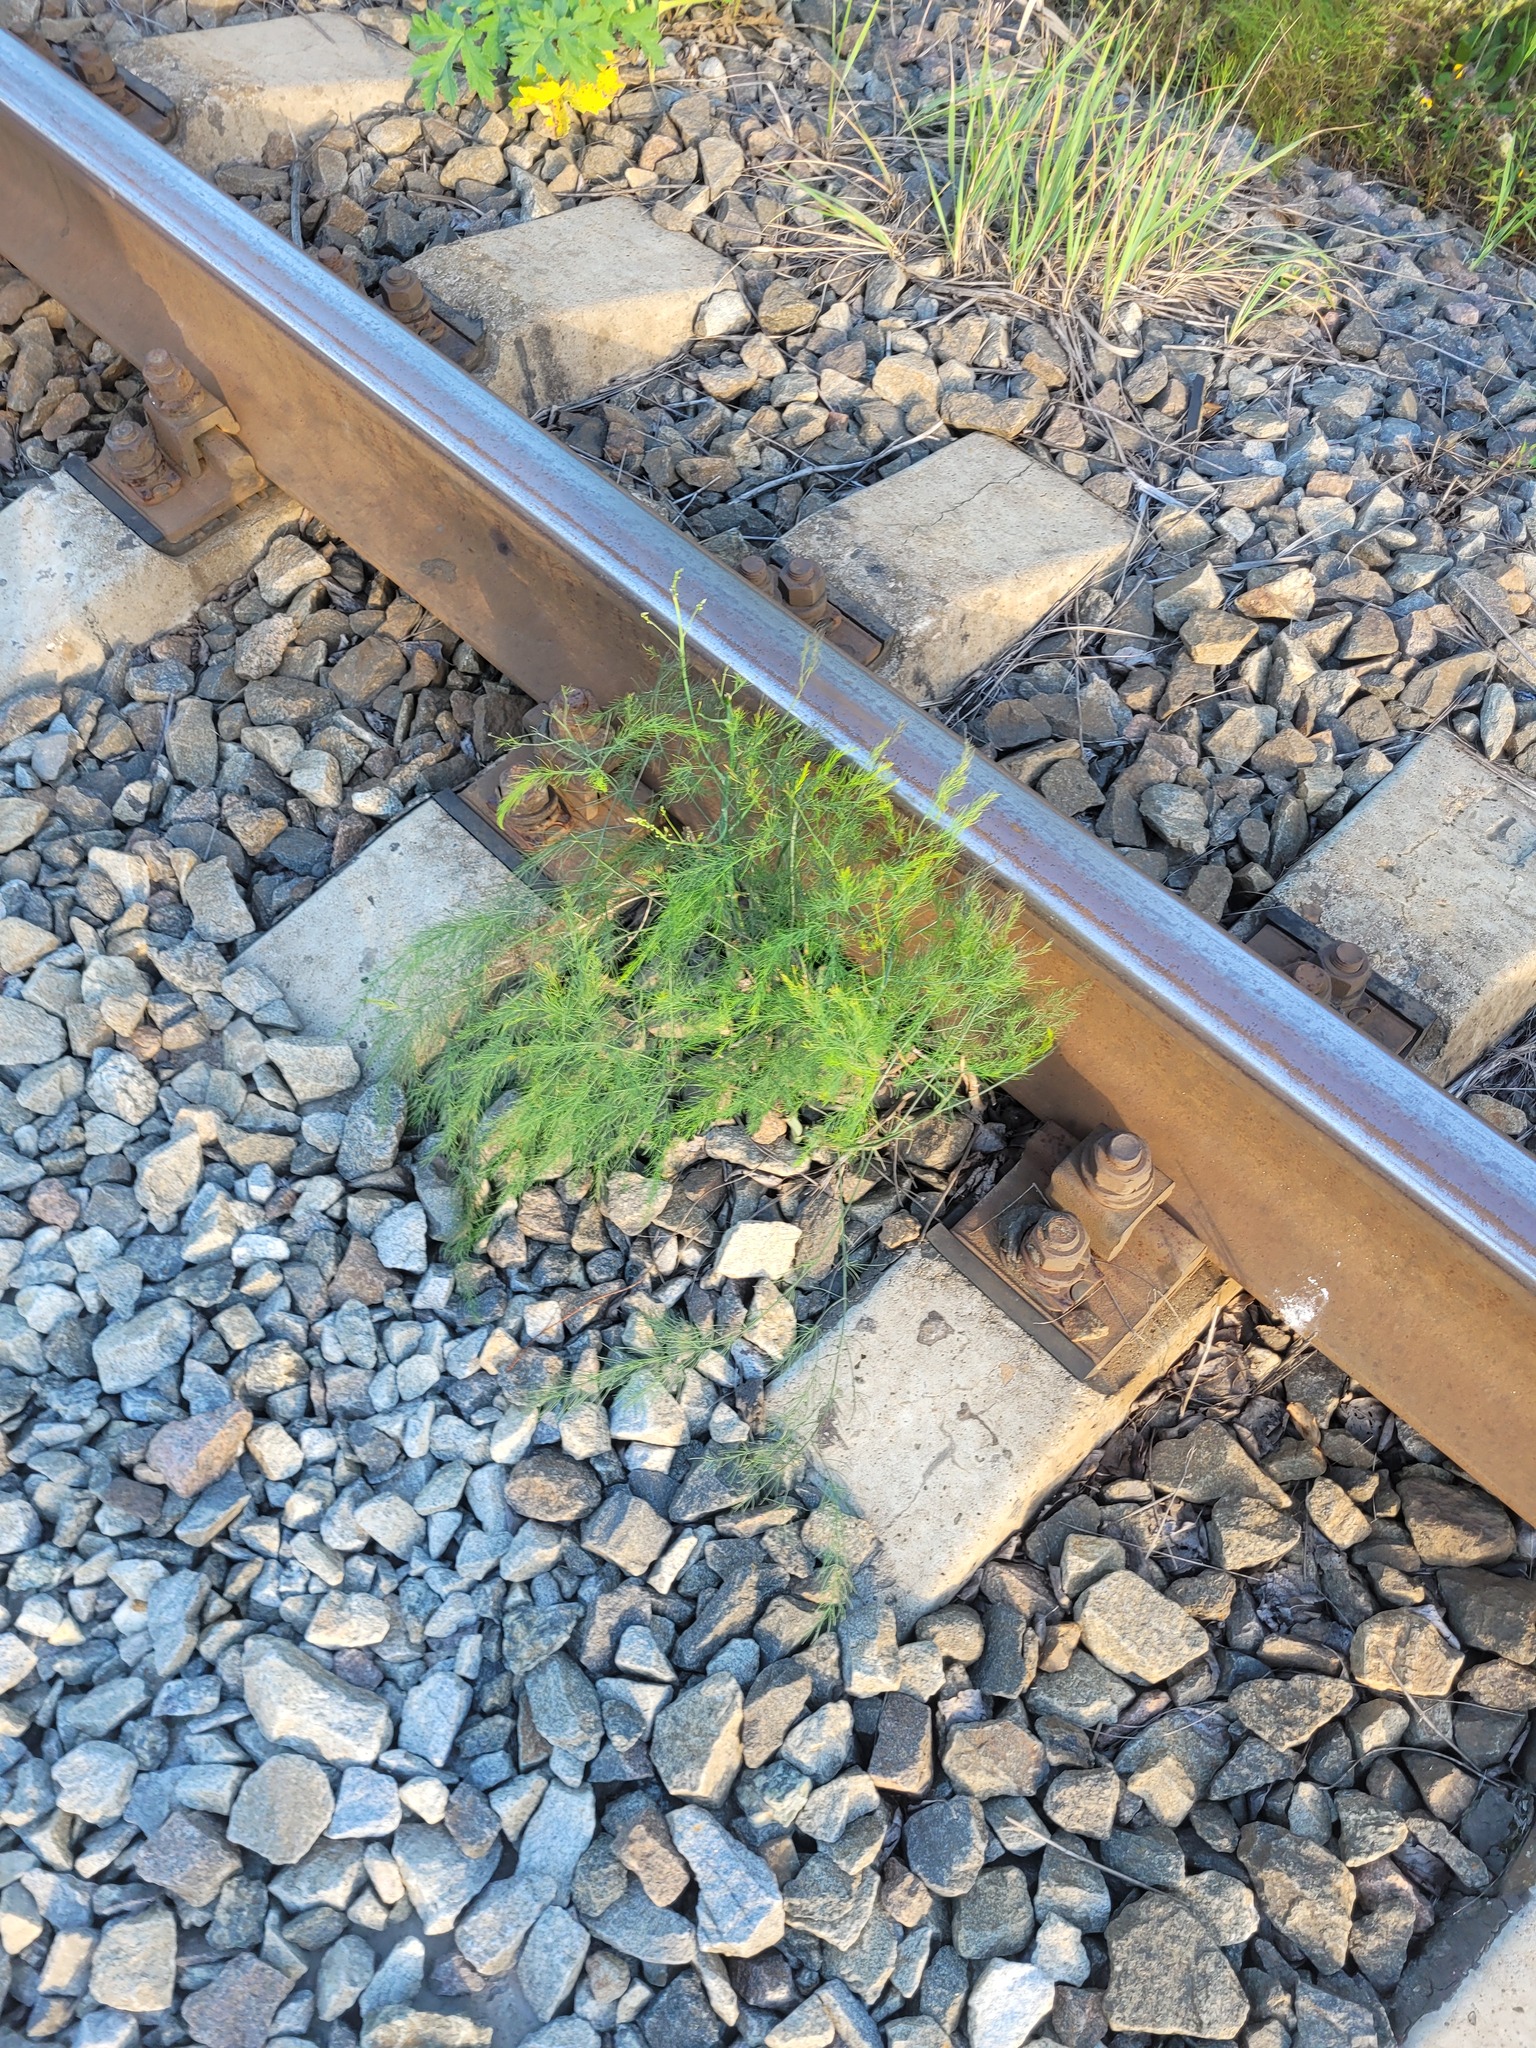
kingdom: Plantae
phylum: Tracheophyta
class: Liliopsida
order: Asparagales
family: Asparagaceae
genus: Asparagus
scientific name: Asparagus officinalis
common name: Garden asparagus
